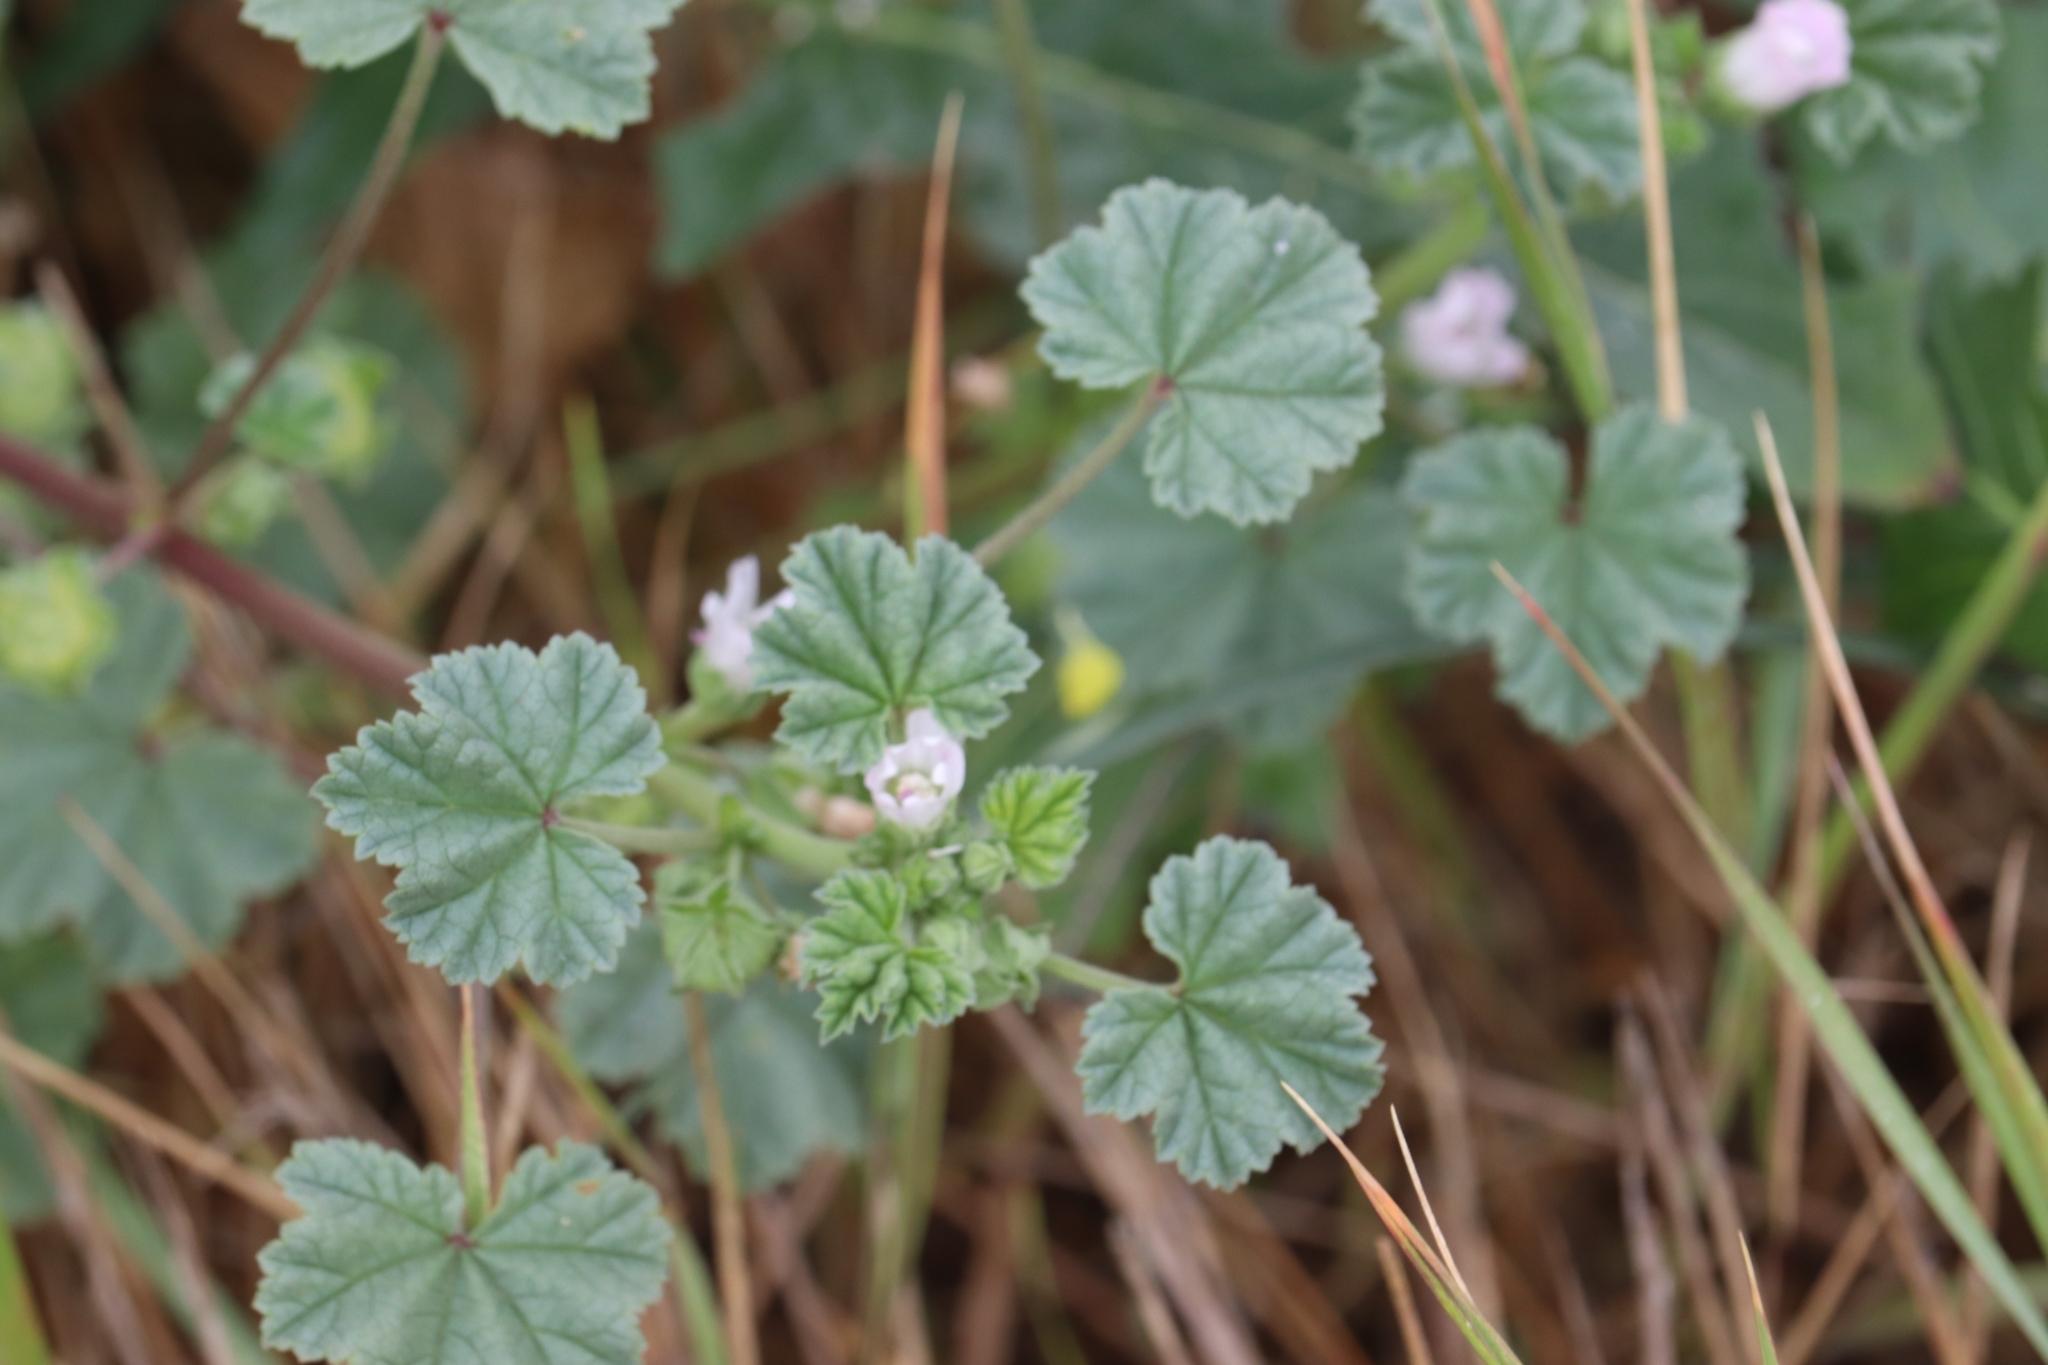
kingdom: Plantae
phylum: Tracheophyta
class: Magnoliopsida
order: Malvales
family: Malvaceae
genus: Malva
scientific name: Malva neglecta
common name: Common mallow
